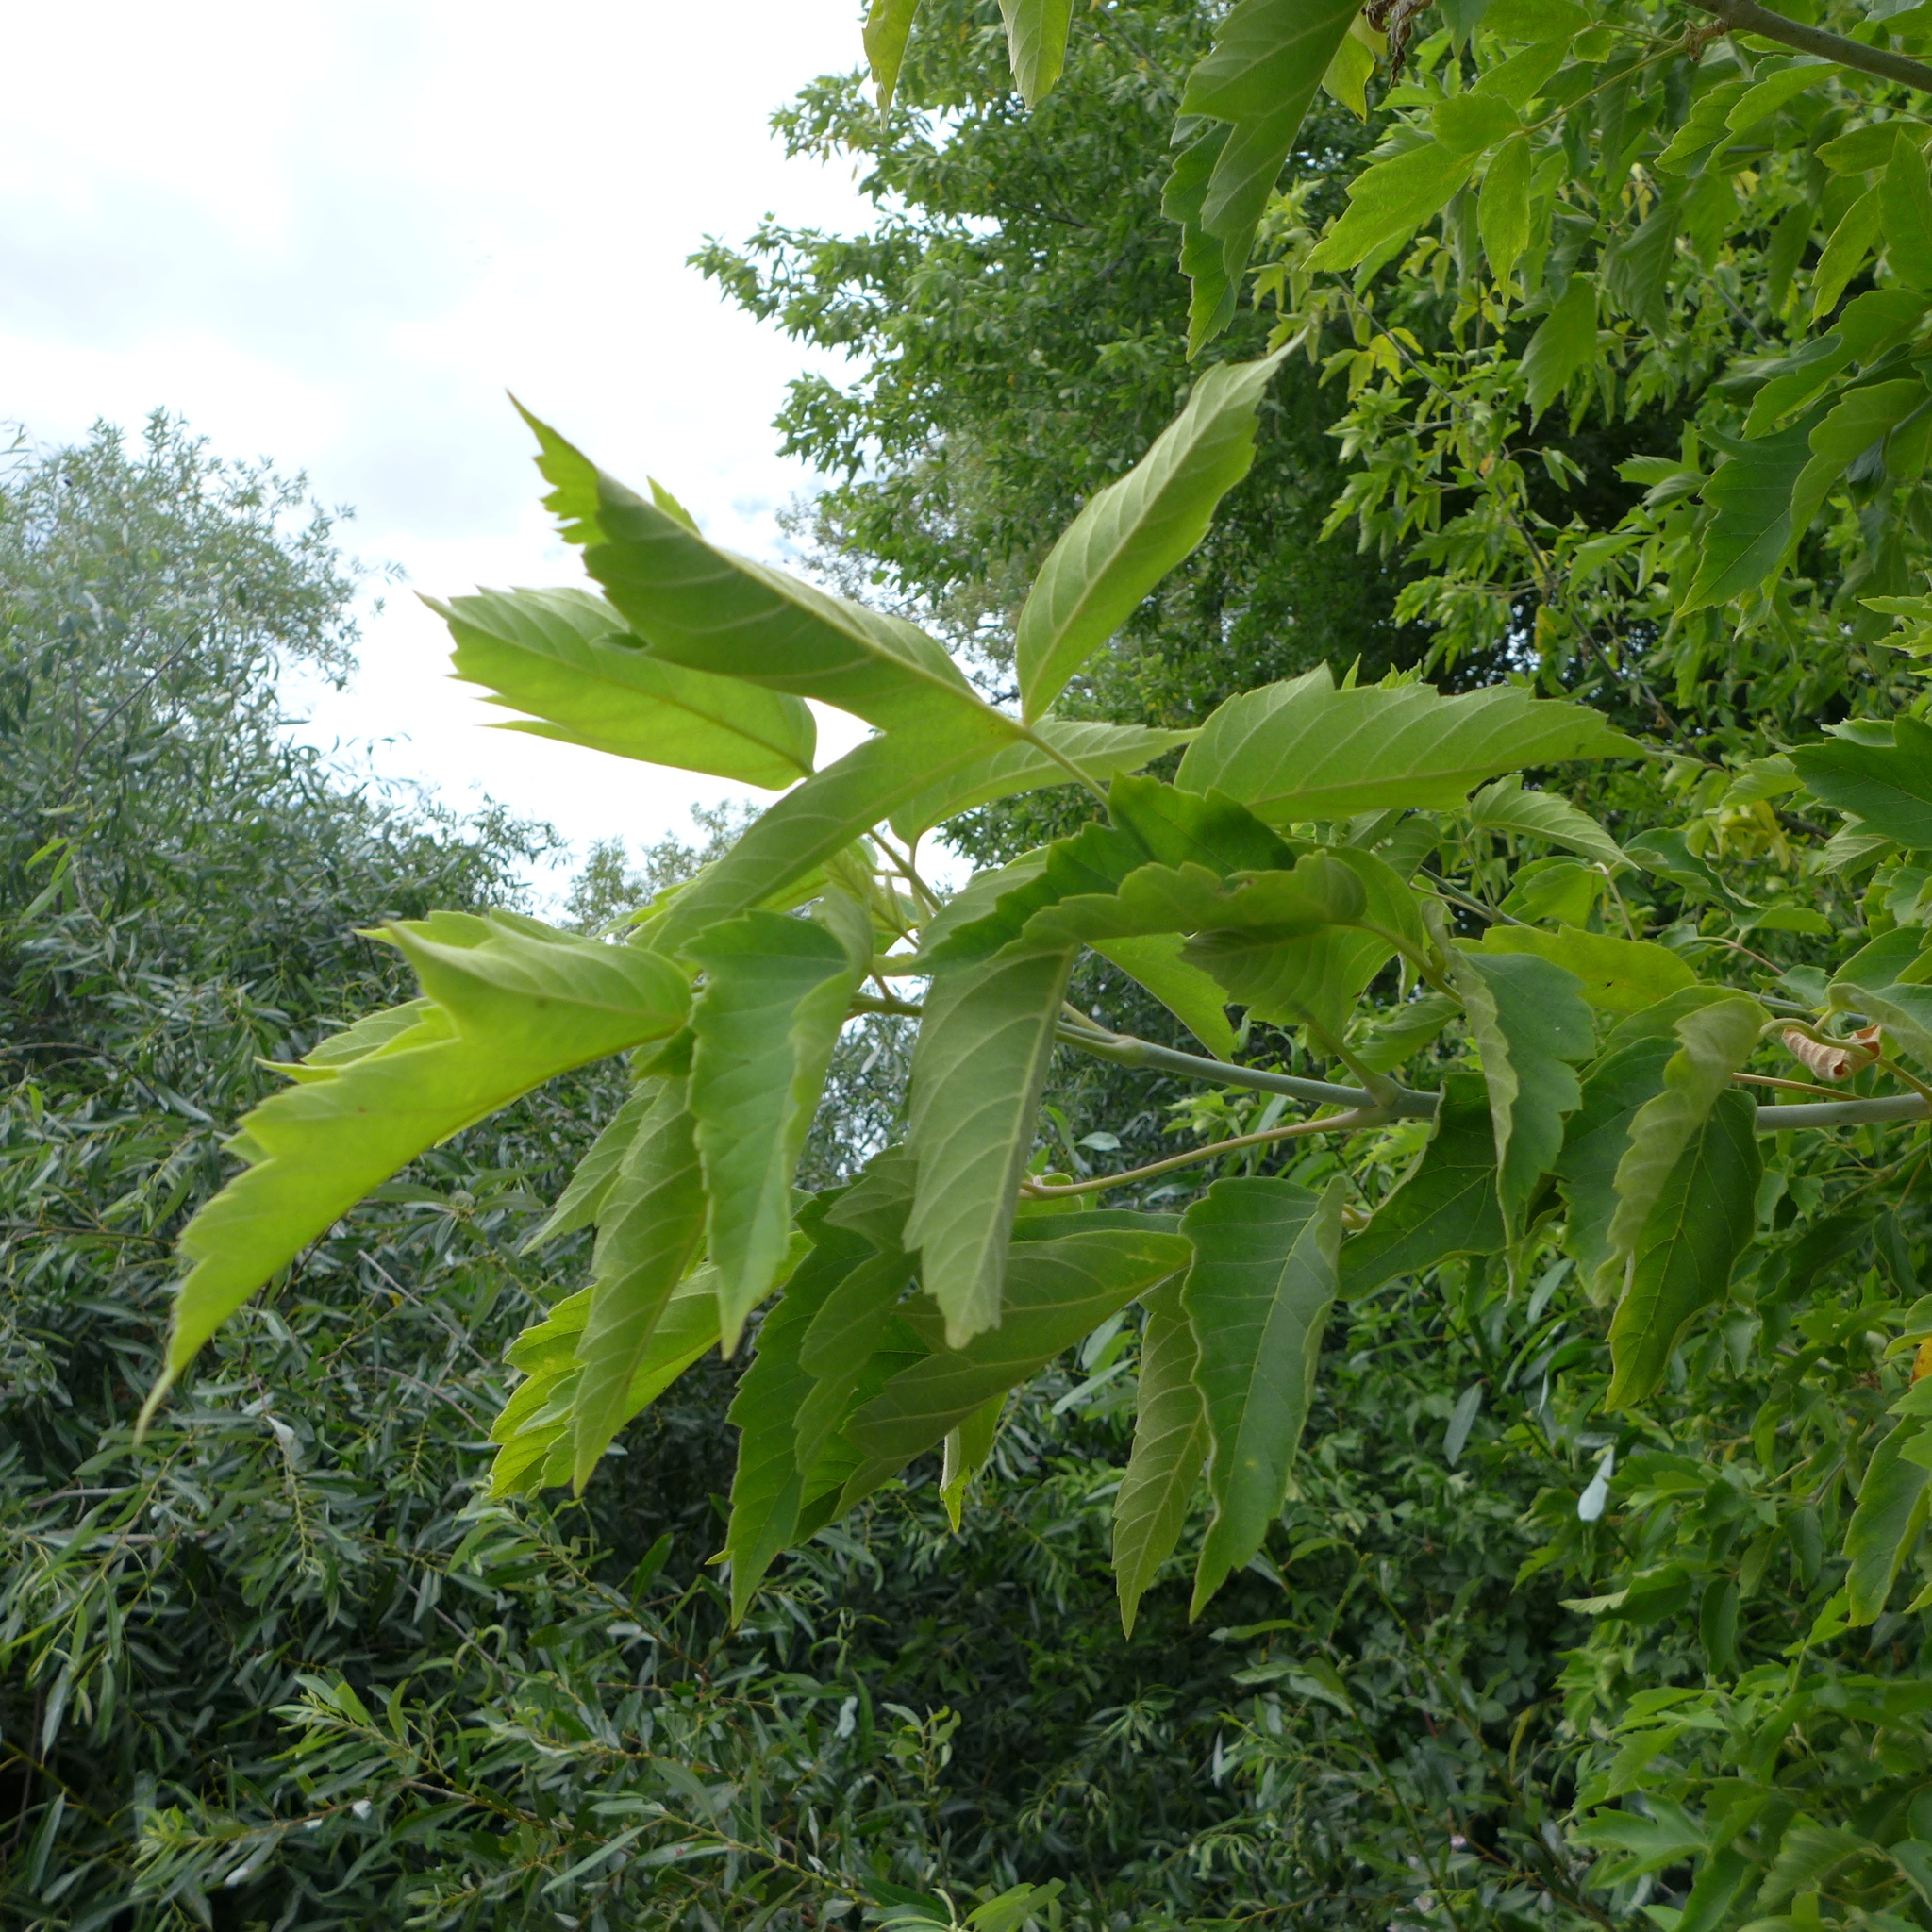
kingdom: Plantae
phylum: Tracheophyta
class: Magnoliopsida
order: Sapindales
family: Sapindaceae
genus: Acer
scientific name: Acer negundo
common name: Ashleaf maple
